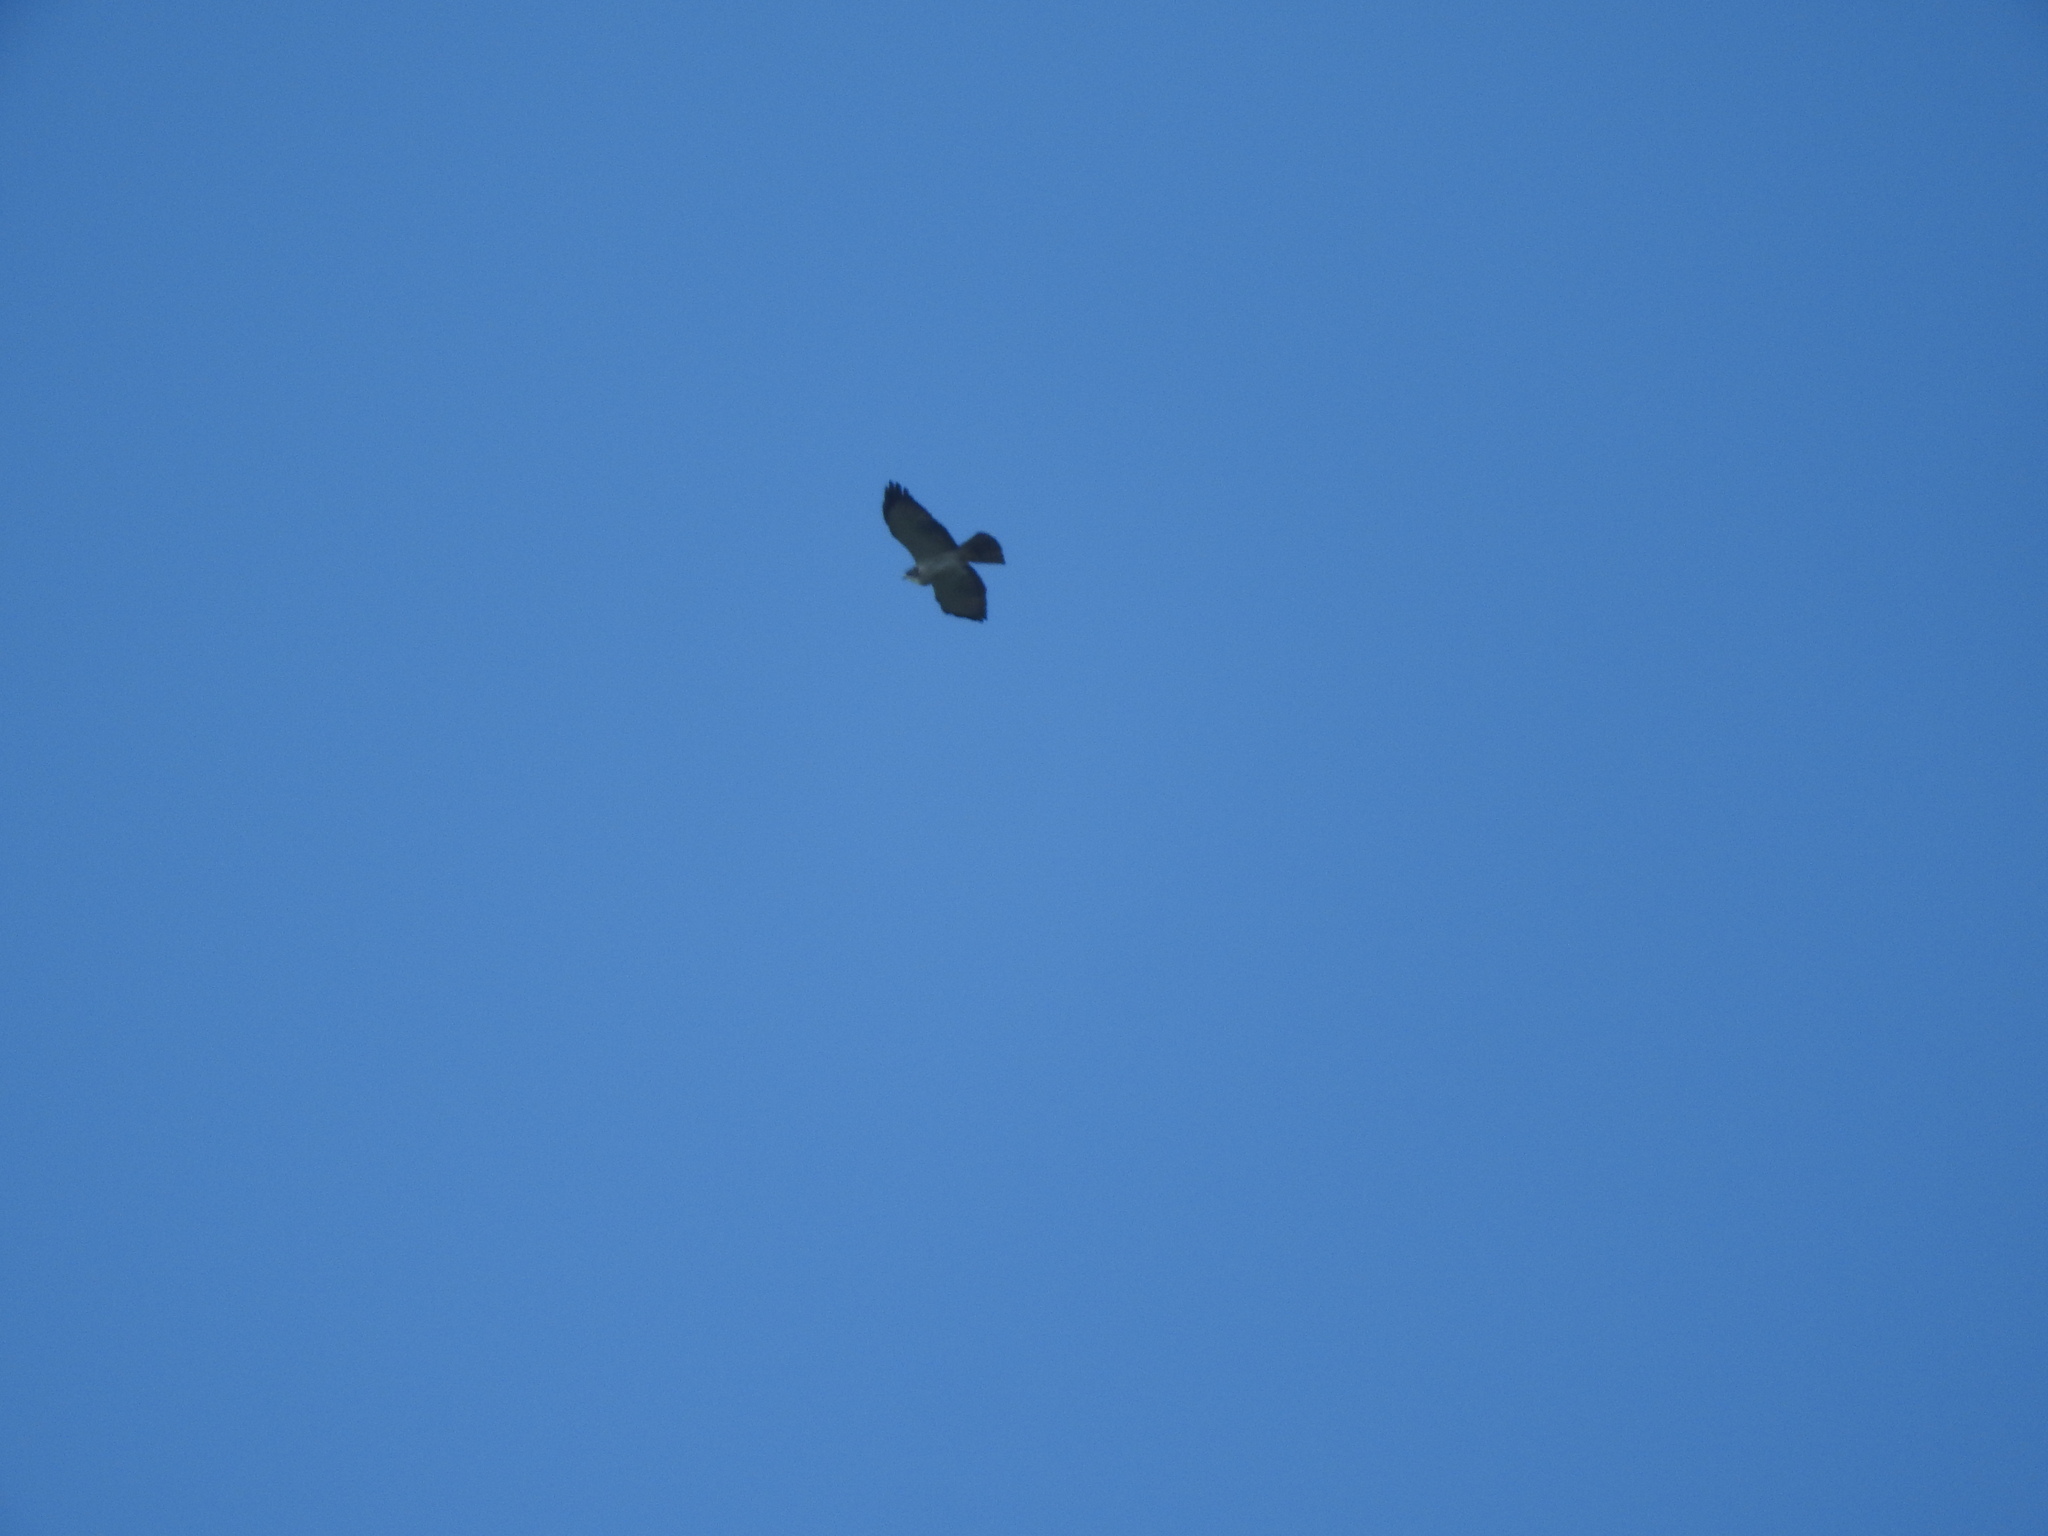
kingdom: Animalia
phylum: Chordata
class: Aves
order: Accipitriformes
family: Accipitridae
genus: Buteo
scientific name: Buteo brachyurus
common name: Short-tailed hawk
